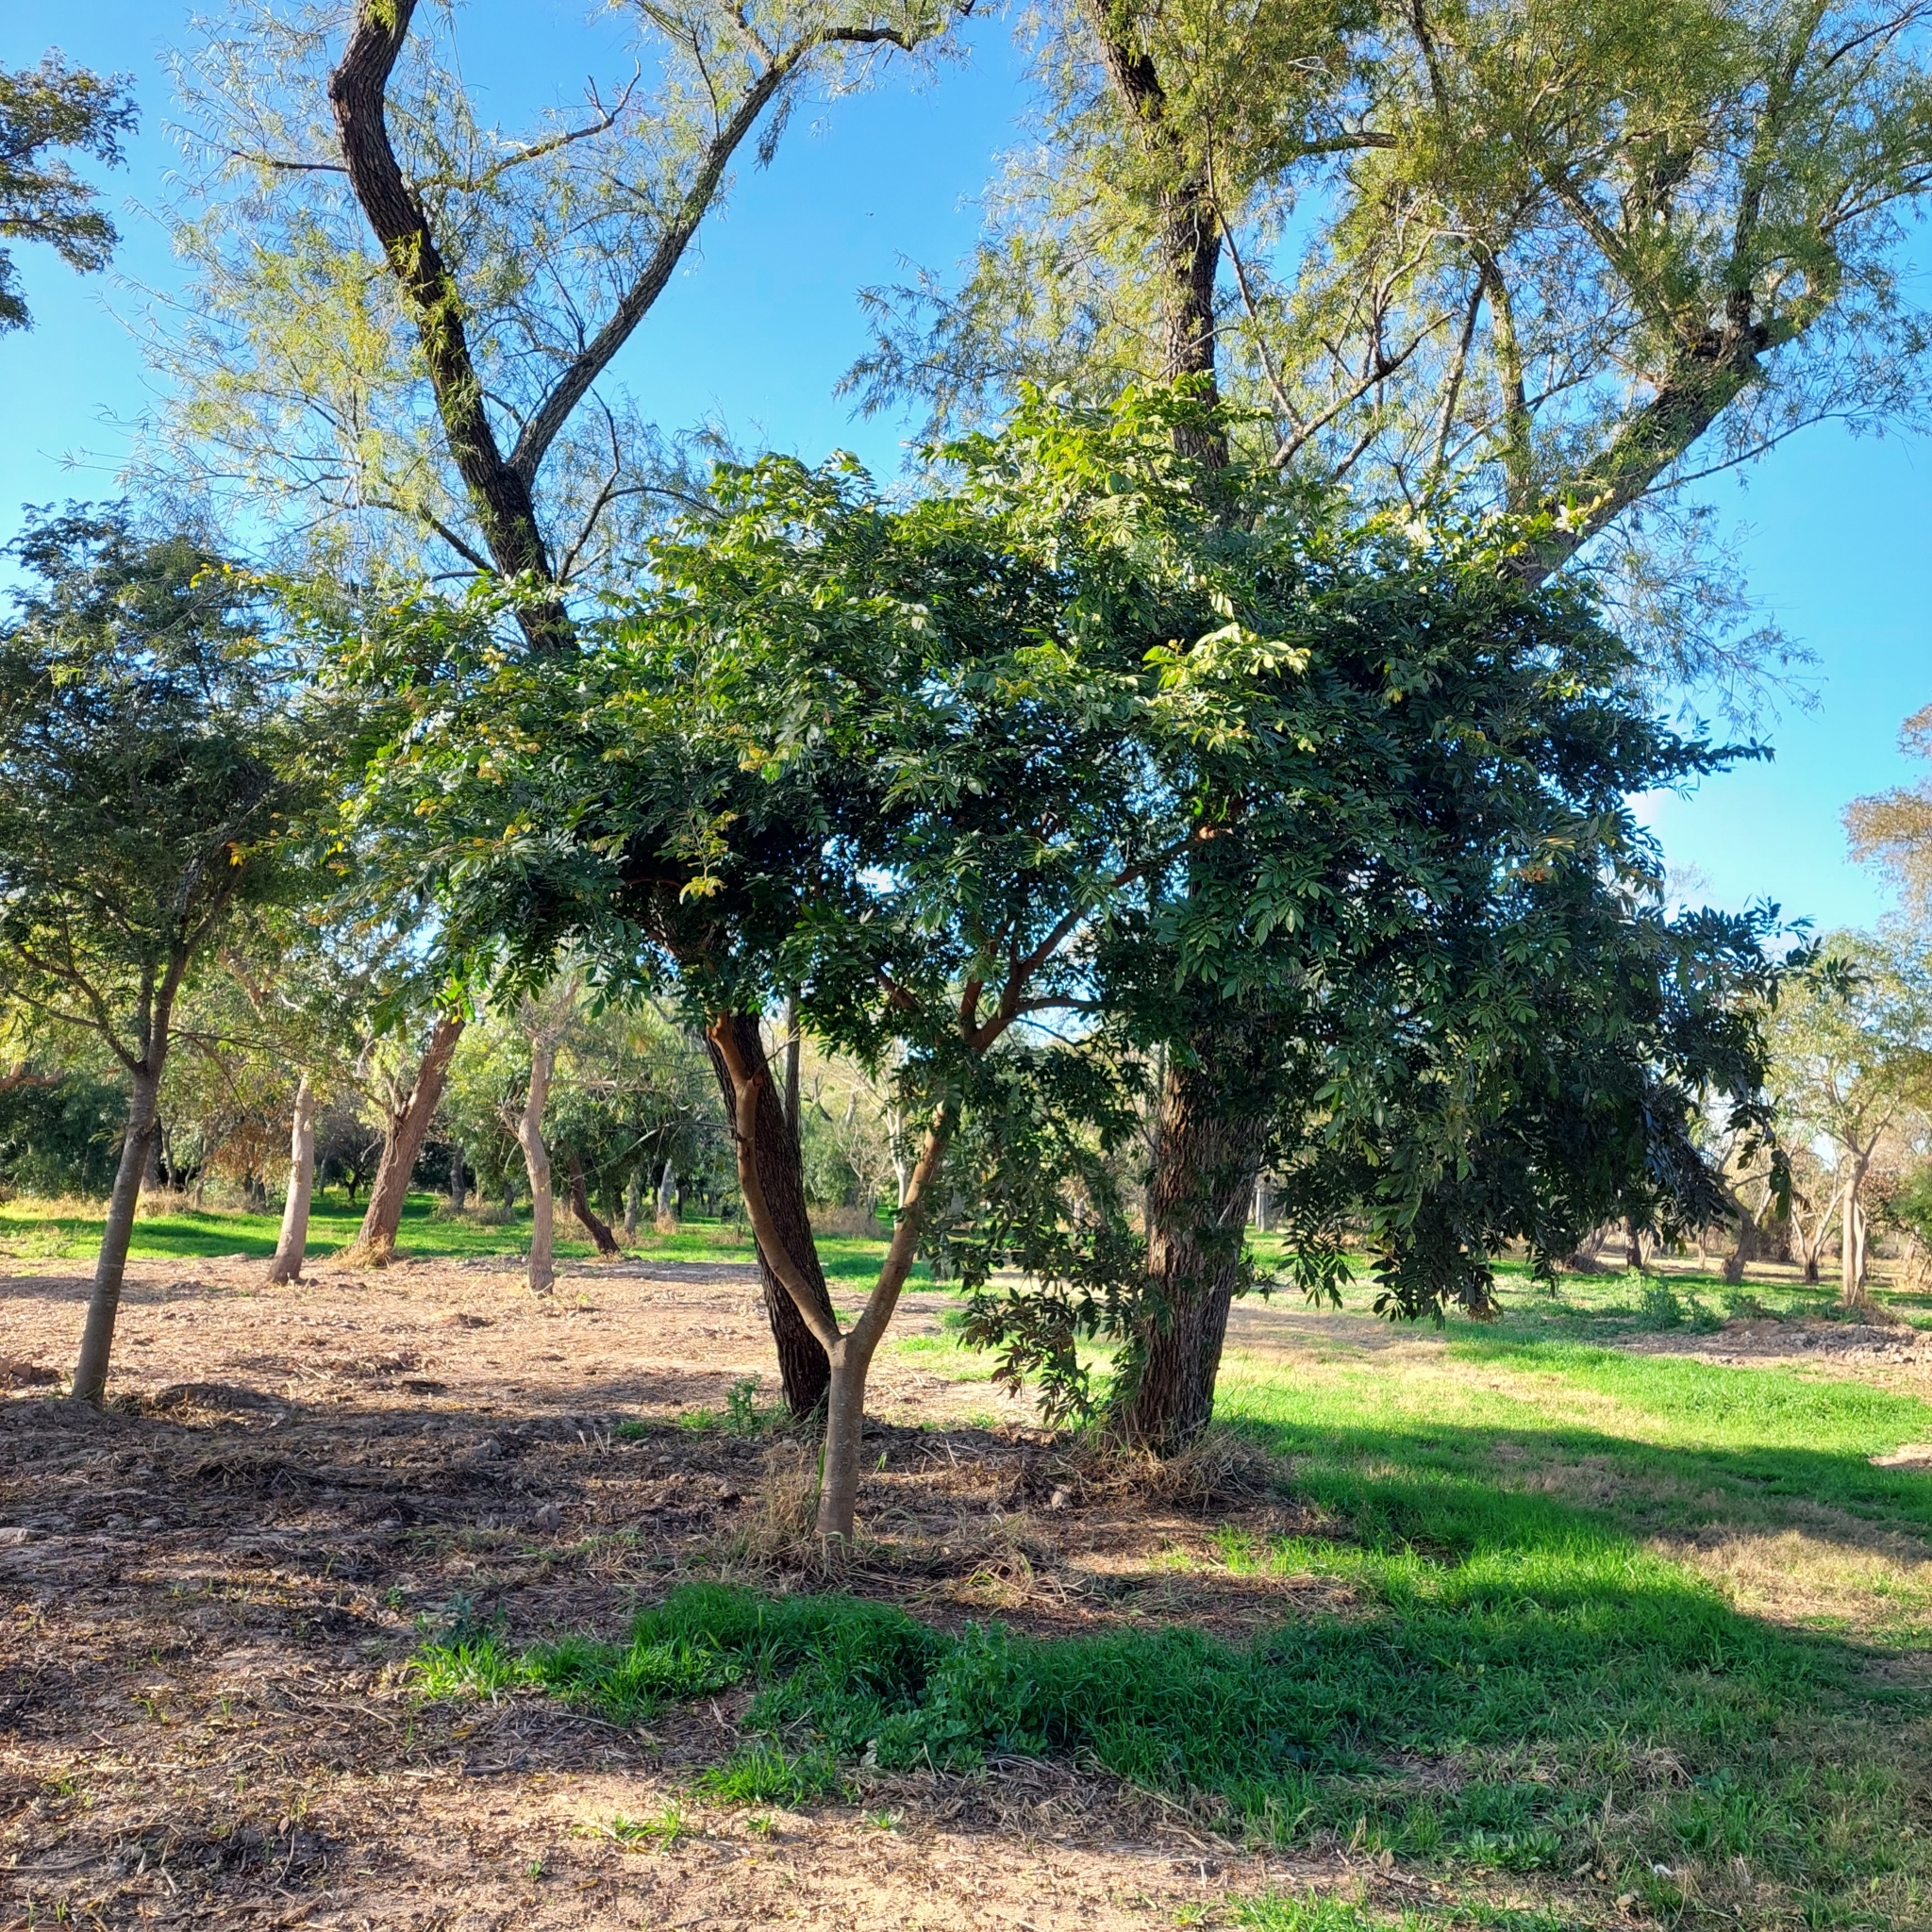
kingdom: Plantae
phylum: Tracheophyta
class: Magnoliopsida
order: Fabales
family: Fabaceae
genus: Inga
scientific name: Inga uraguensis
